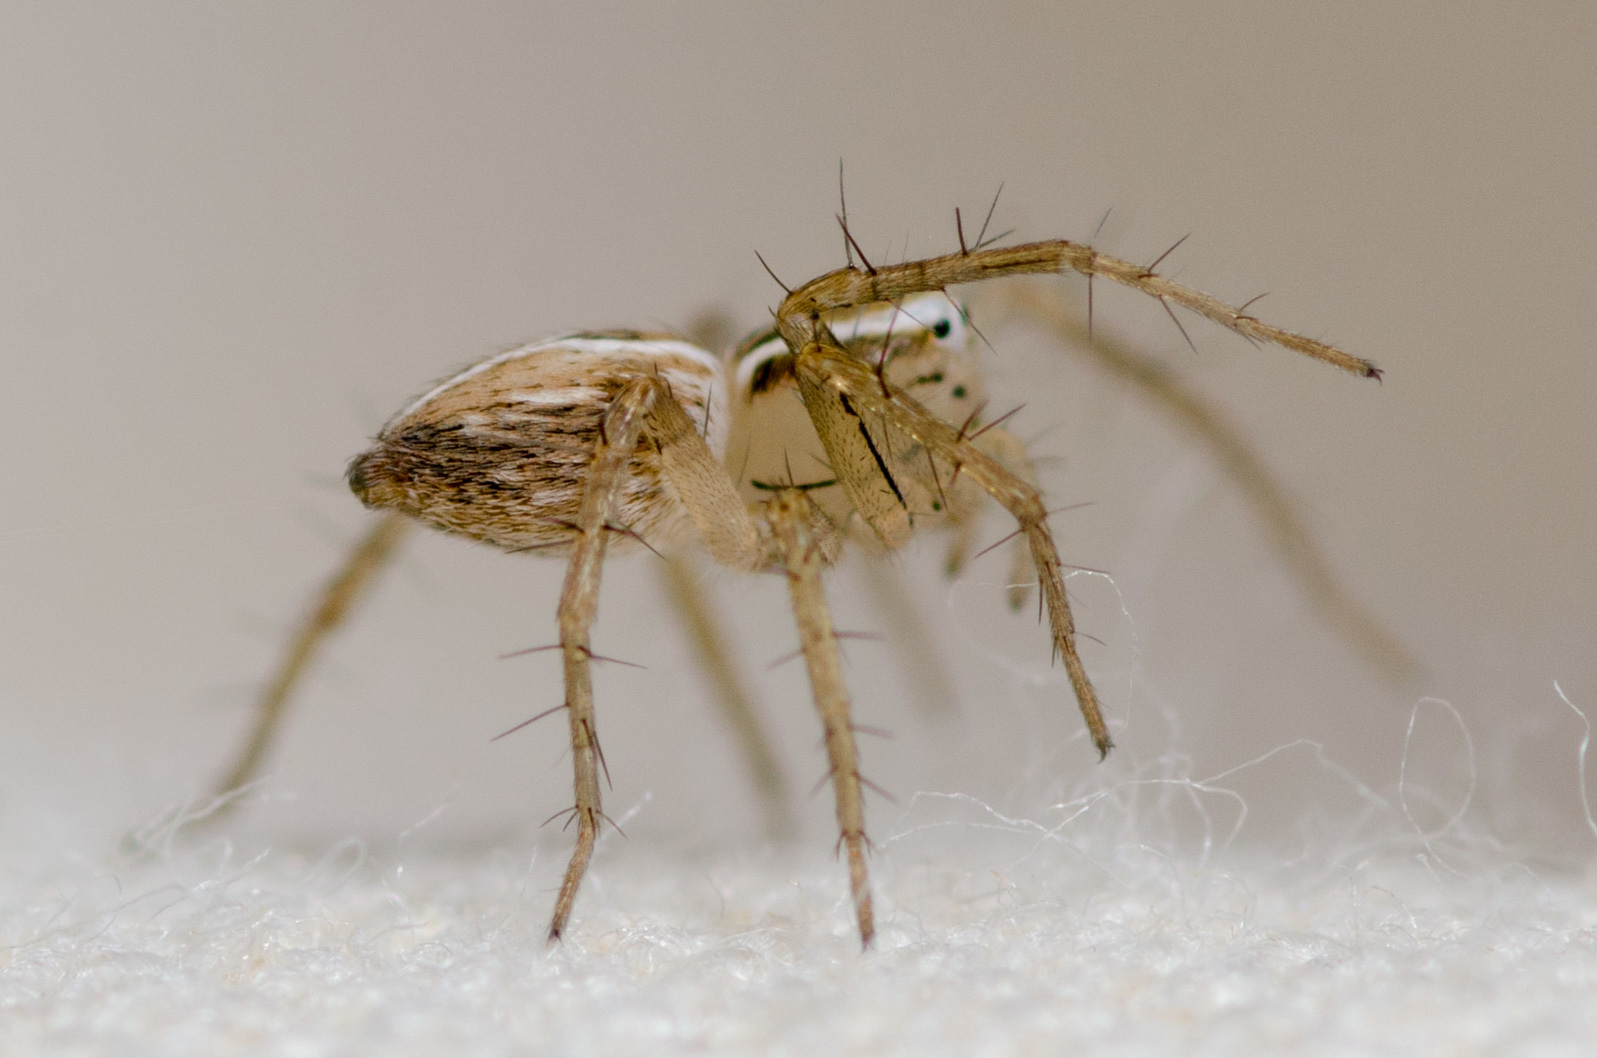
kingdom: Animalia
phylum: Arthropoda
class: Arachnida
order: Araneae
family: Oxyopidae
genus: Oxyopes
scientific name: Oxyopes salticus
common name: Lynx spiders
